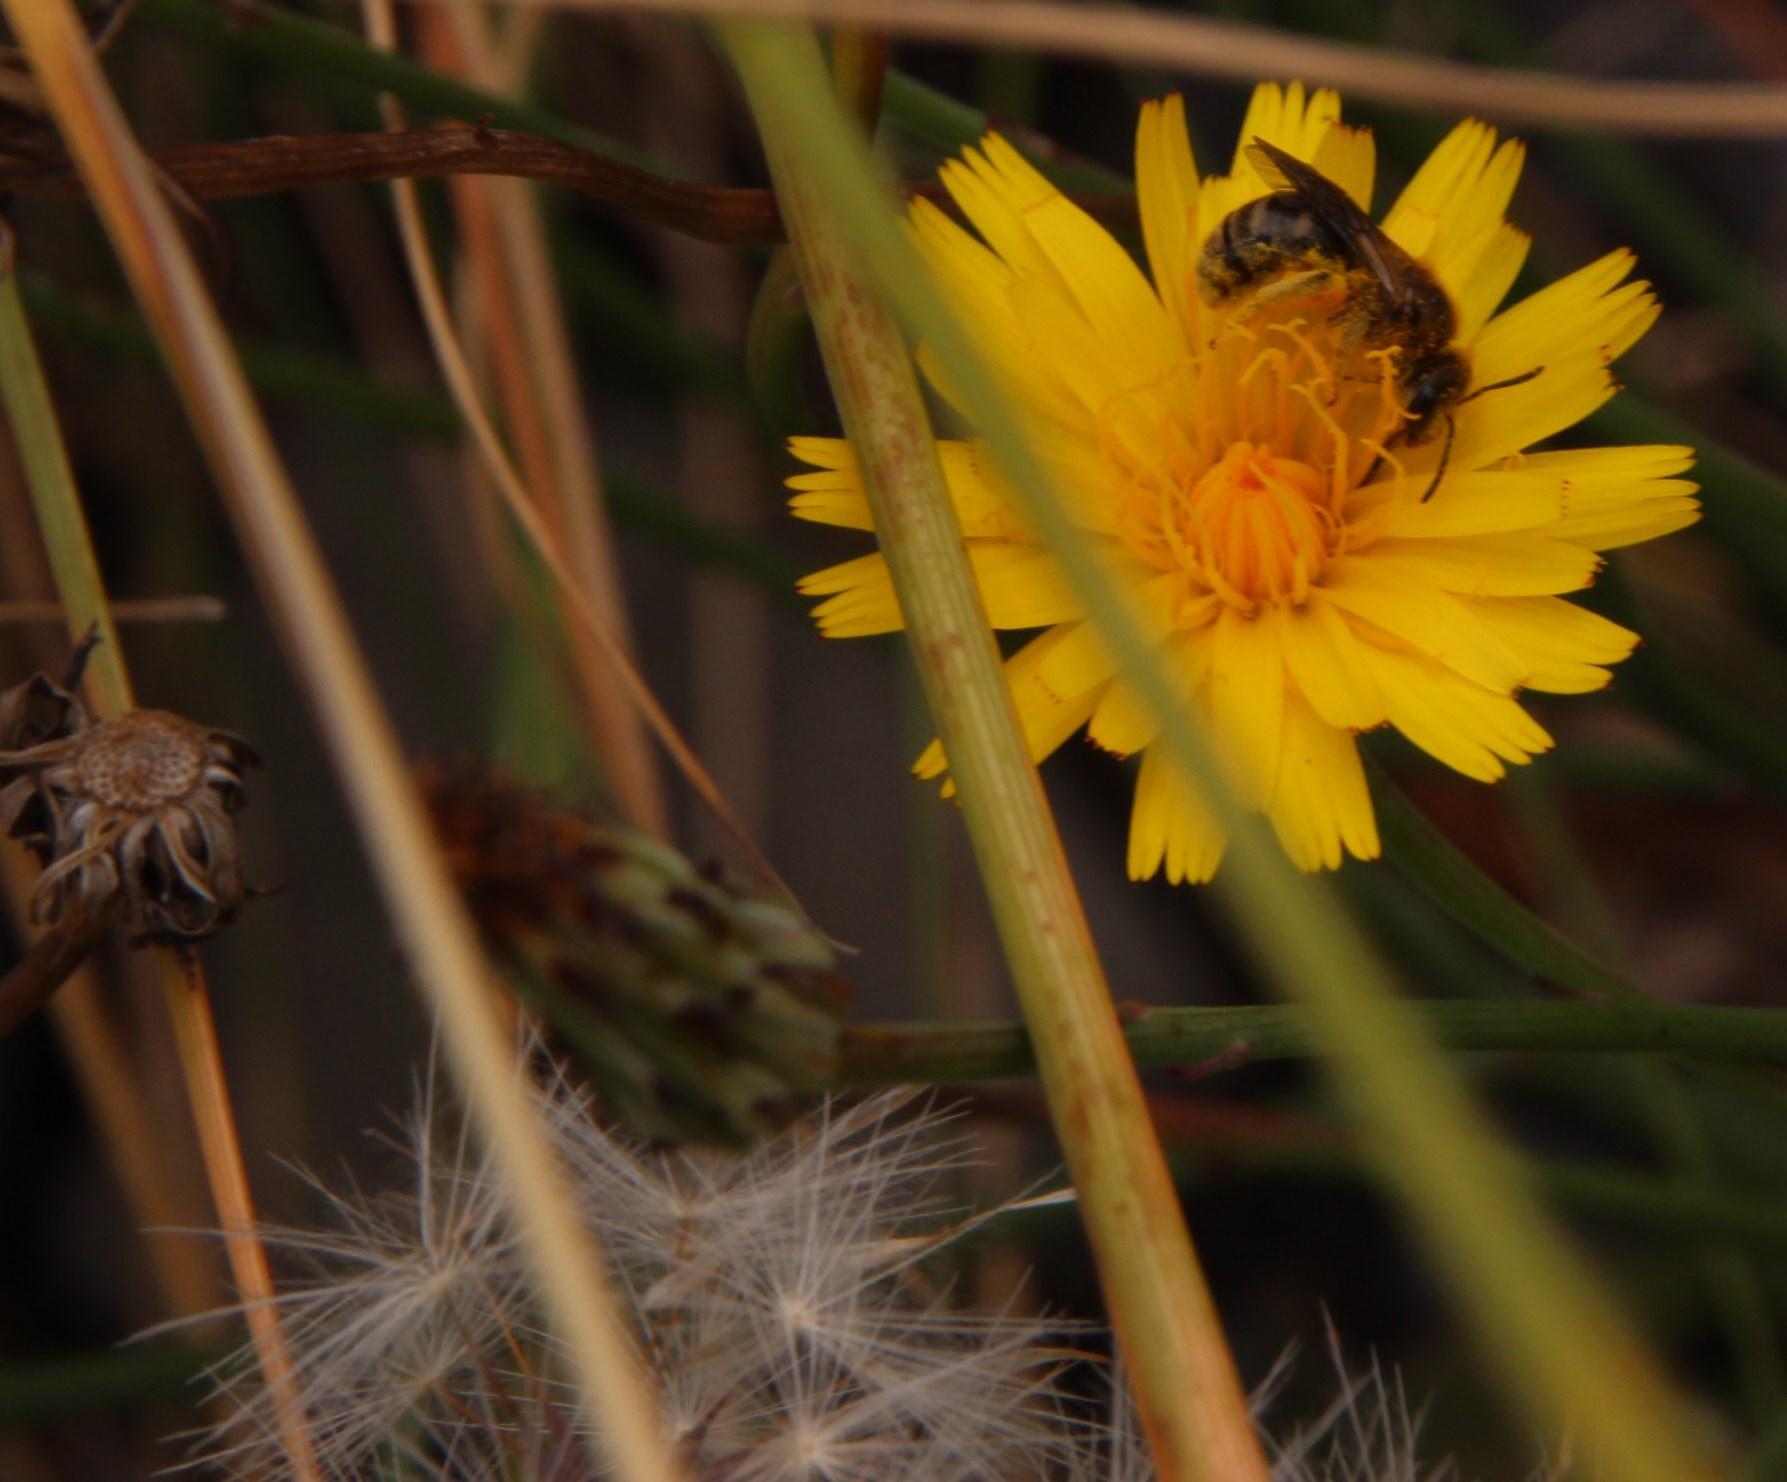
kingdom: Plantae
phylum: Tracheophyta
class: Magnoliopsida
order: Asterales
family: Asteraceae
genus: Hypochaeris
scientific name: Hypochaeris radicata
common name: Flatweed
